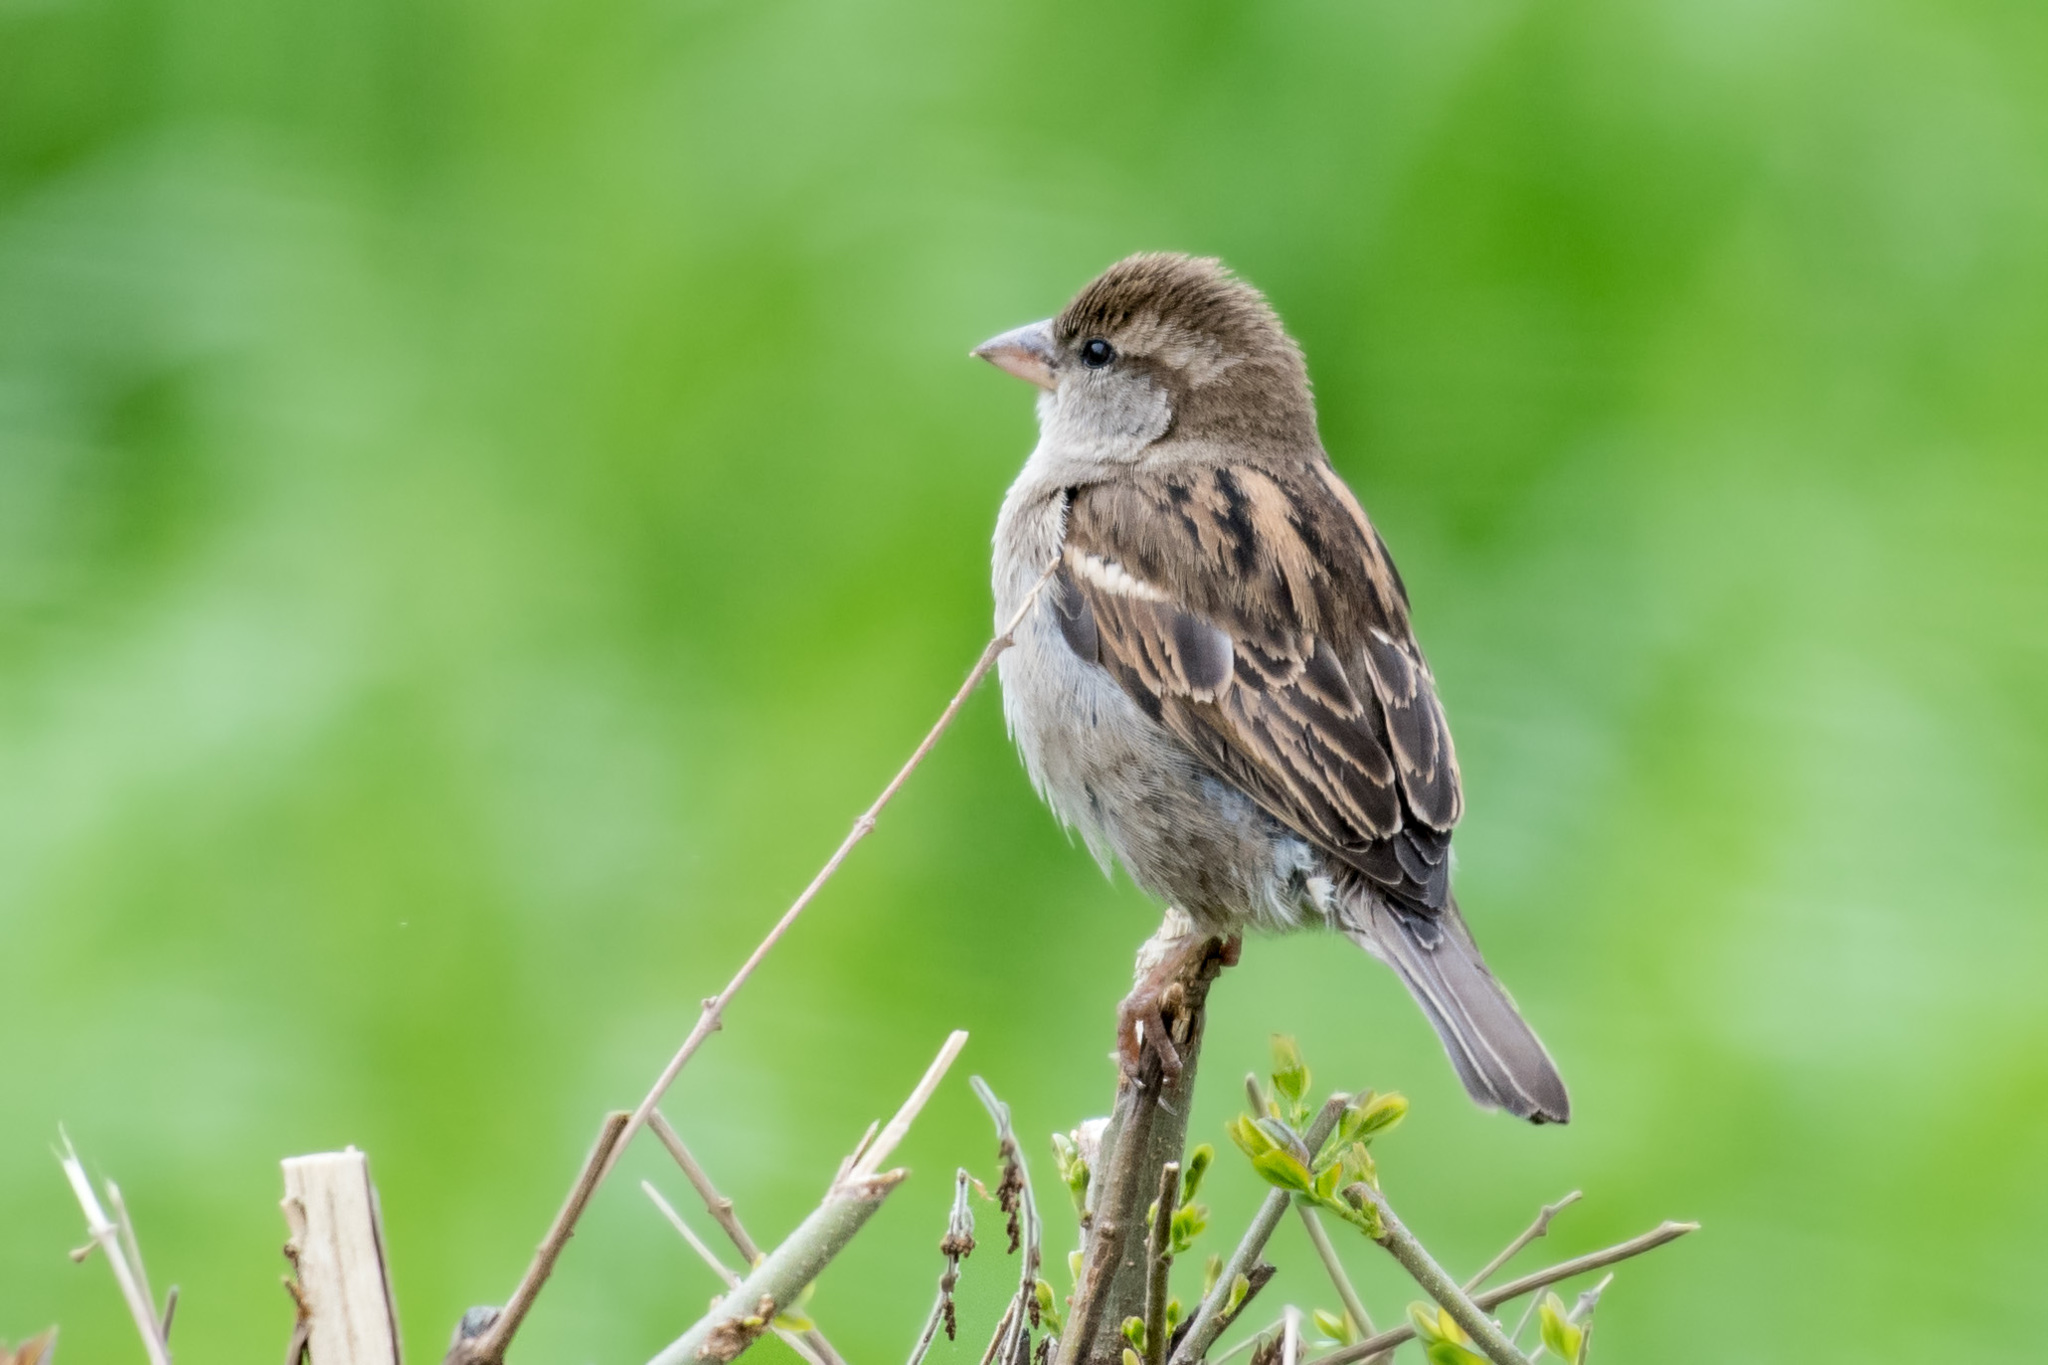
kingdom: Animalia
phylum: Chordata
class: Aves
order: Passeriformes
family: Passeridae
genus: Passer
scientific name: Passer italiae
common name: Italian sparrow
